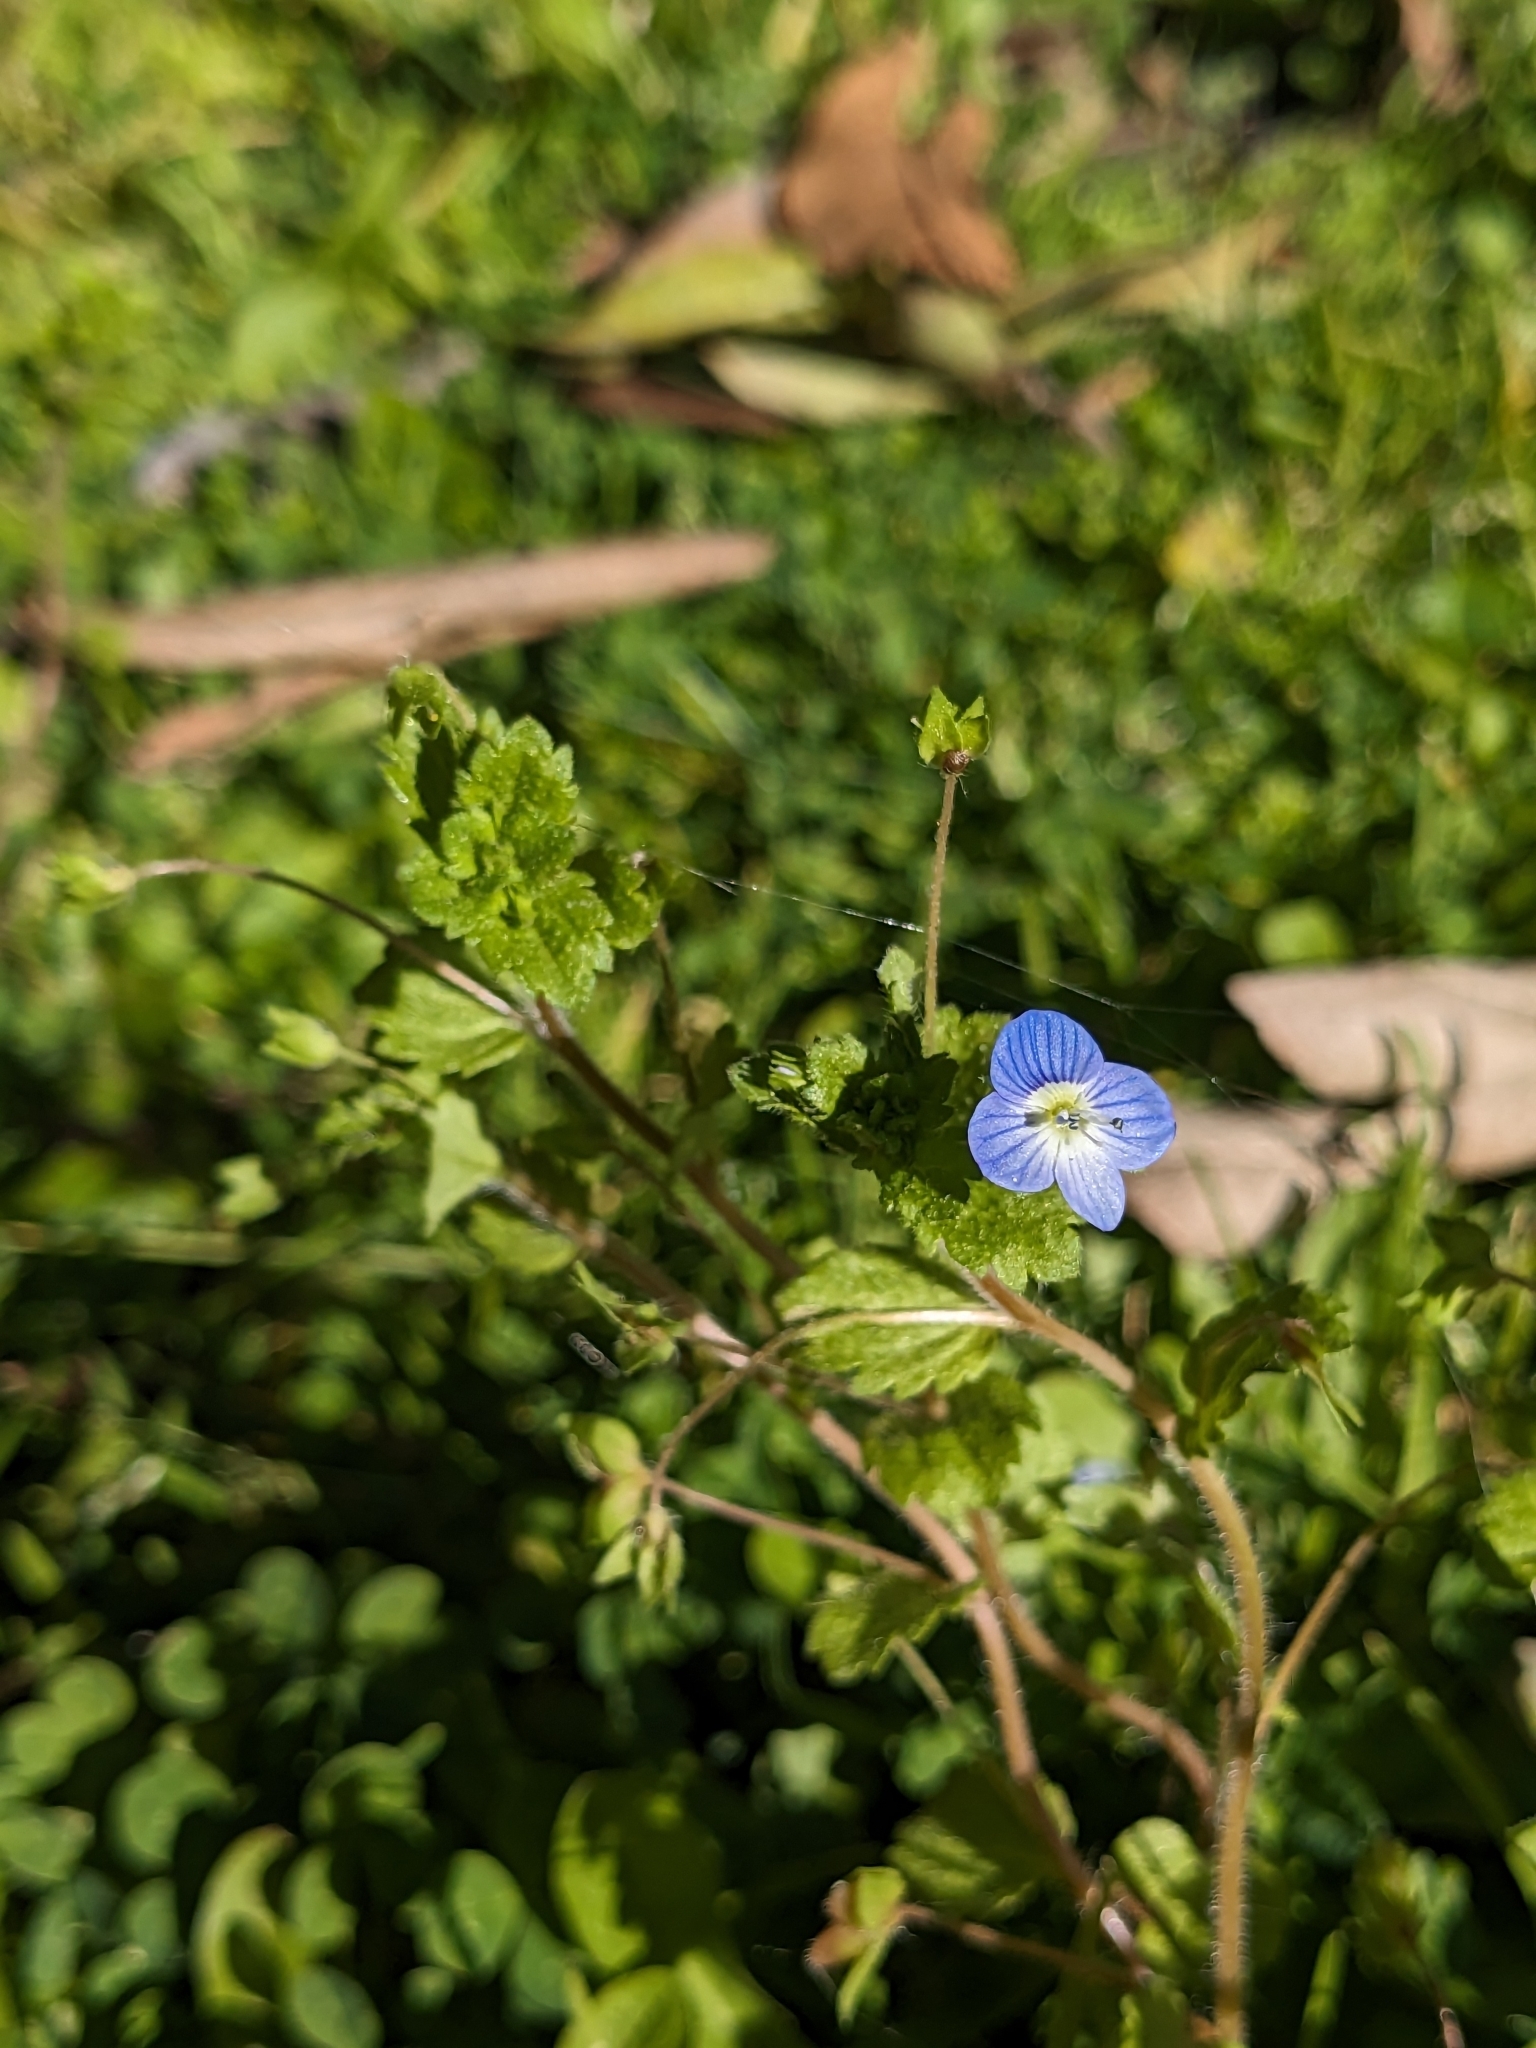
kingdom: Plantae
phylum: Tracheophyta
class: Magnoliopsida
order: Lamiales
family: Plantaginaceae
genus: Veronica
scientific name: Veronica persica
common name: Common field-speedwell
